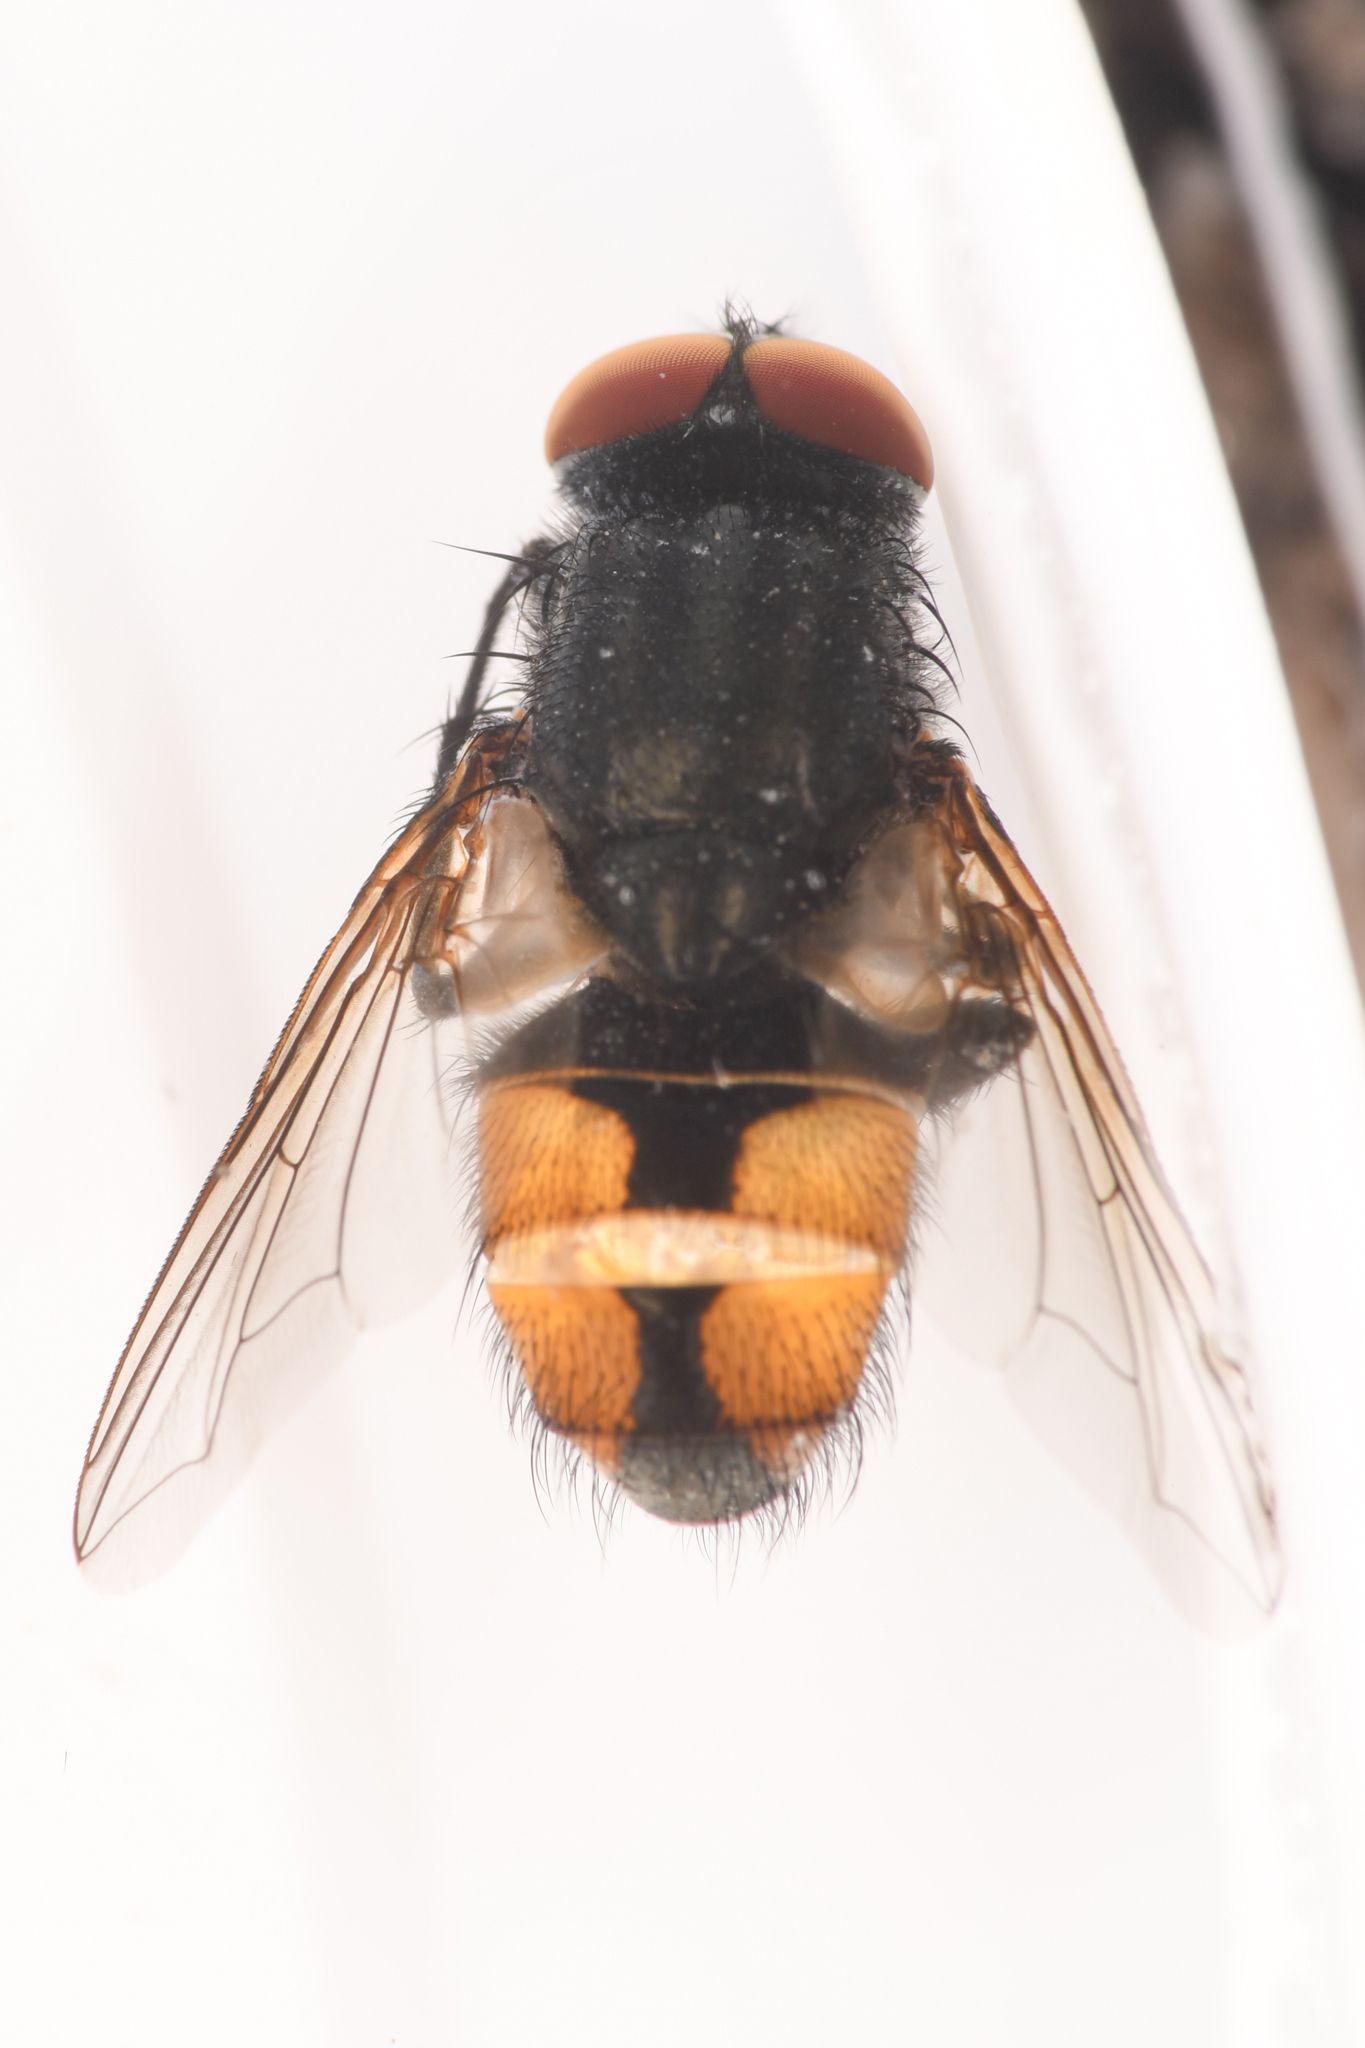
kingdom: Animalia
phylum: Arthropoda
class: Insecta
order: Diptera
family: Muscidae
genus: Musca
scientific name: Musca autumnalis
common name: Face fly
